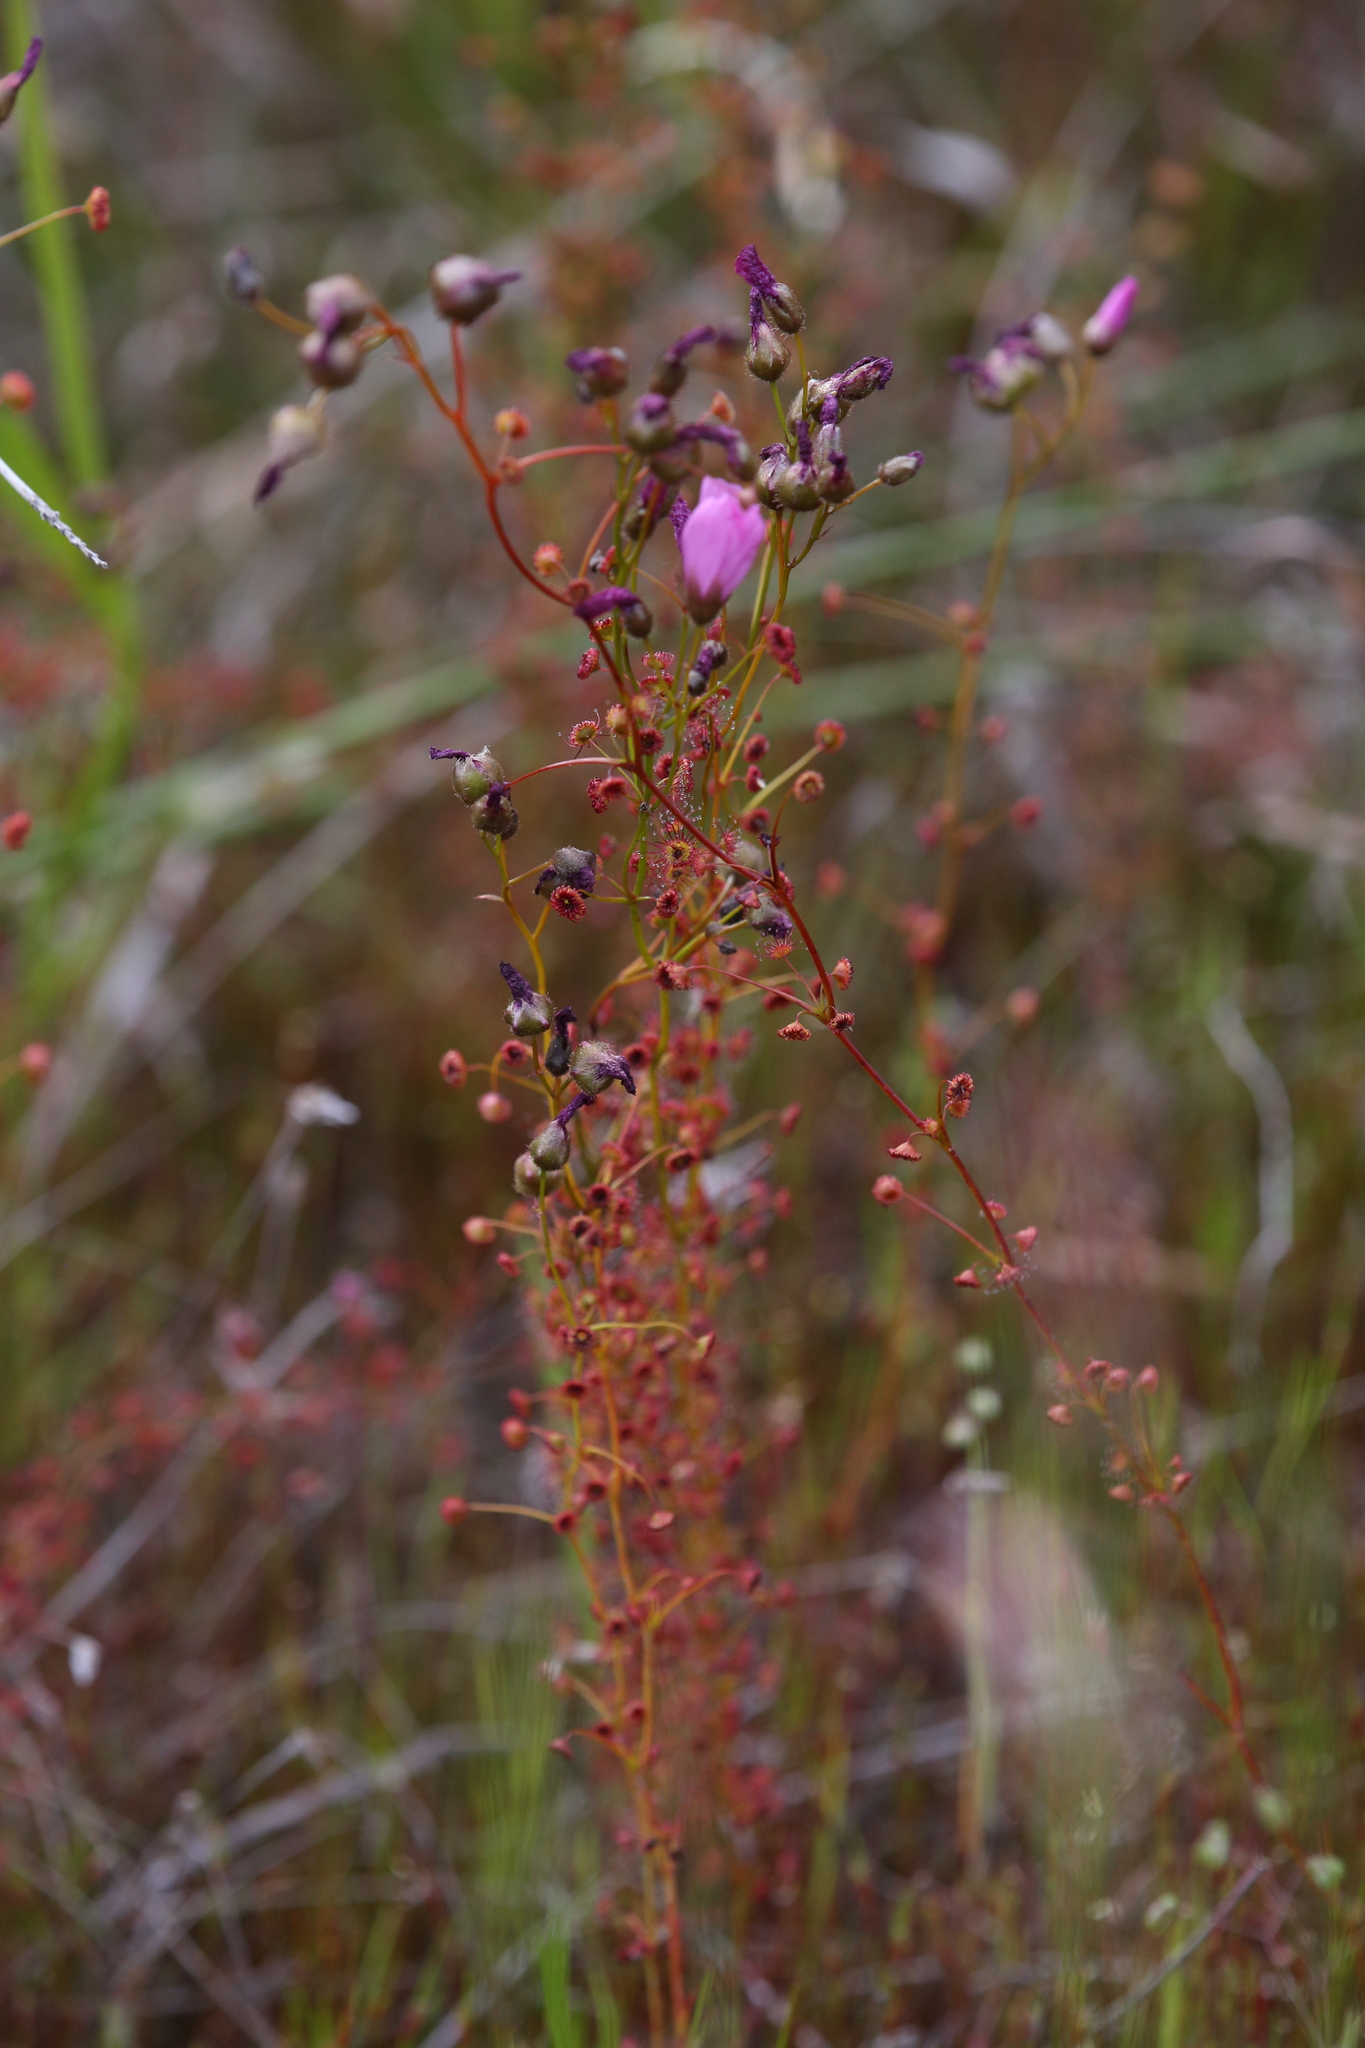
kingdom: Plantae
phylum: Tracheophyta
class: Magnoliopsida
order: Caryophyllales
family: Droseraceae
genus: Drosera
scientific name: Drosera menziesii
